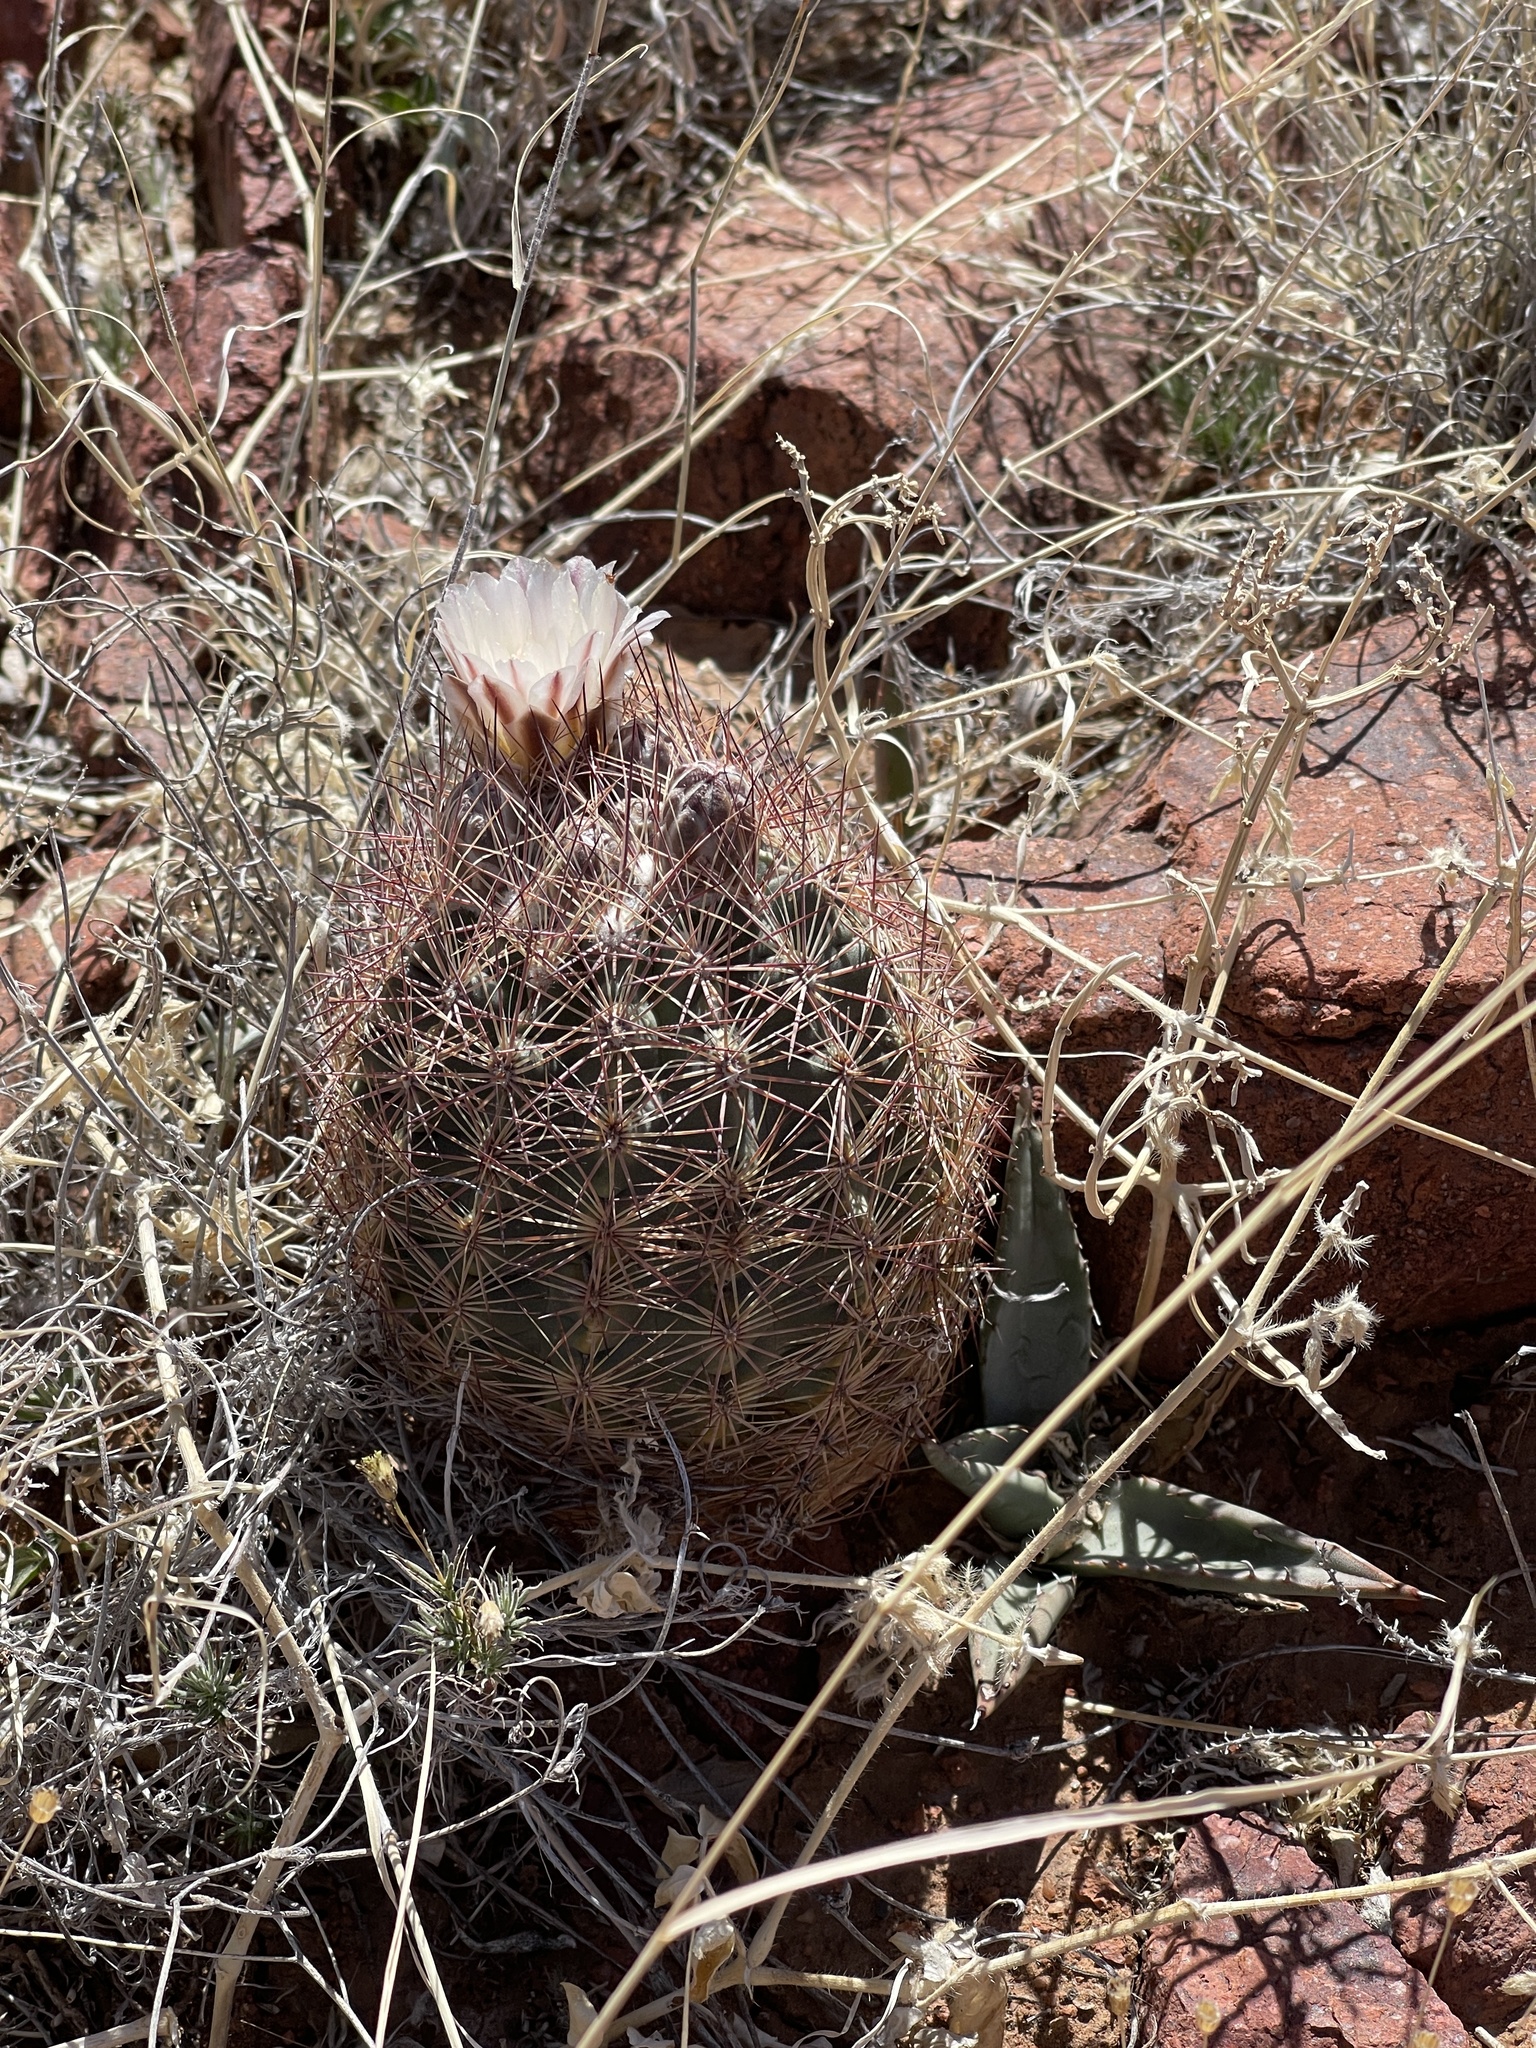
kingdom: Plantae
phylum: Tracheophyta
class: Magnoliopsida
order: Caryophyllales
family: Cactaceae
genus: Sclerocactus
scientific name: Sclerocactus intertextus
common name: White fish-hook cactus
